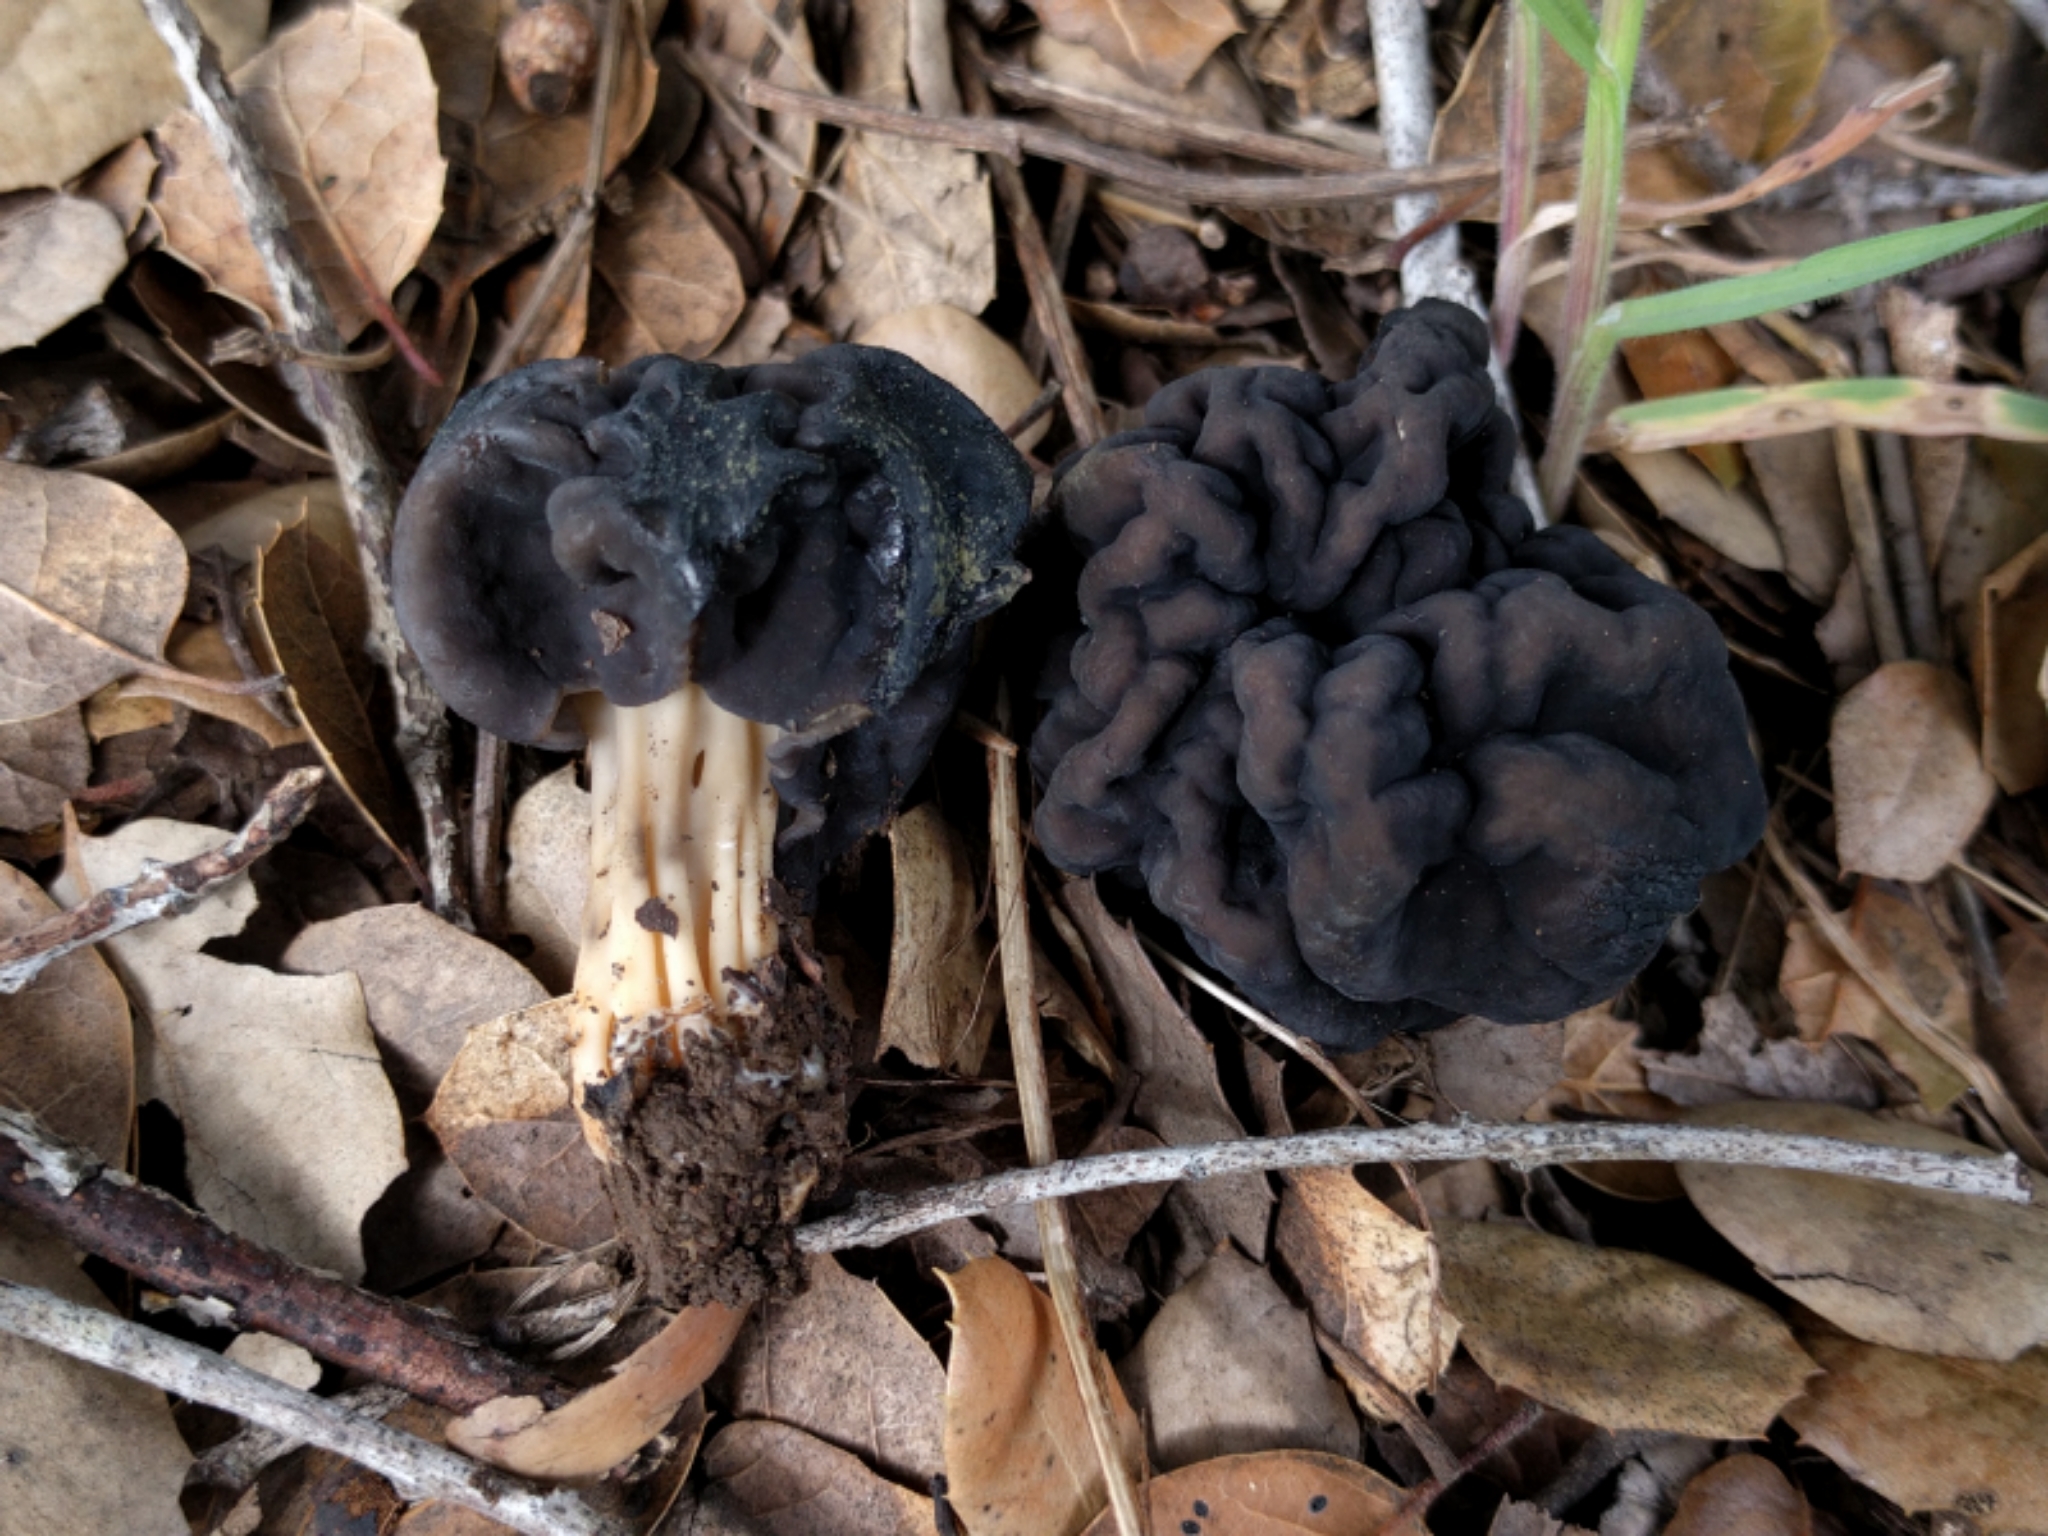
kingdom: Fungi
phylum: Ascomycota
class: Pezizomycetes
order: Pezizales
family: Helvellaceae
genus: Helvella
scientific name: Helvella dryophila
